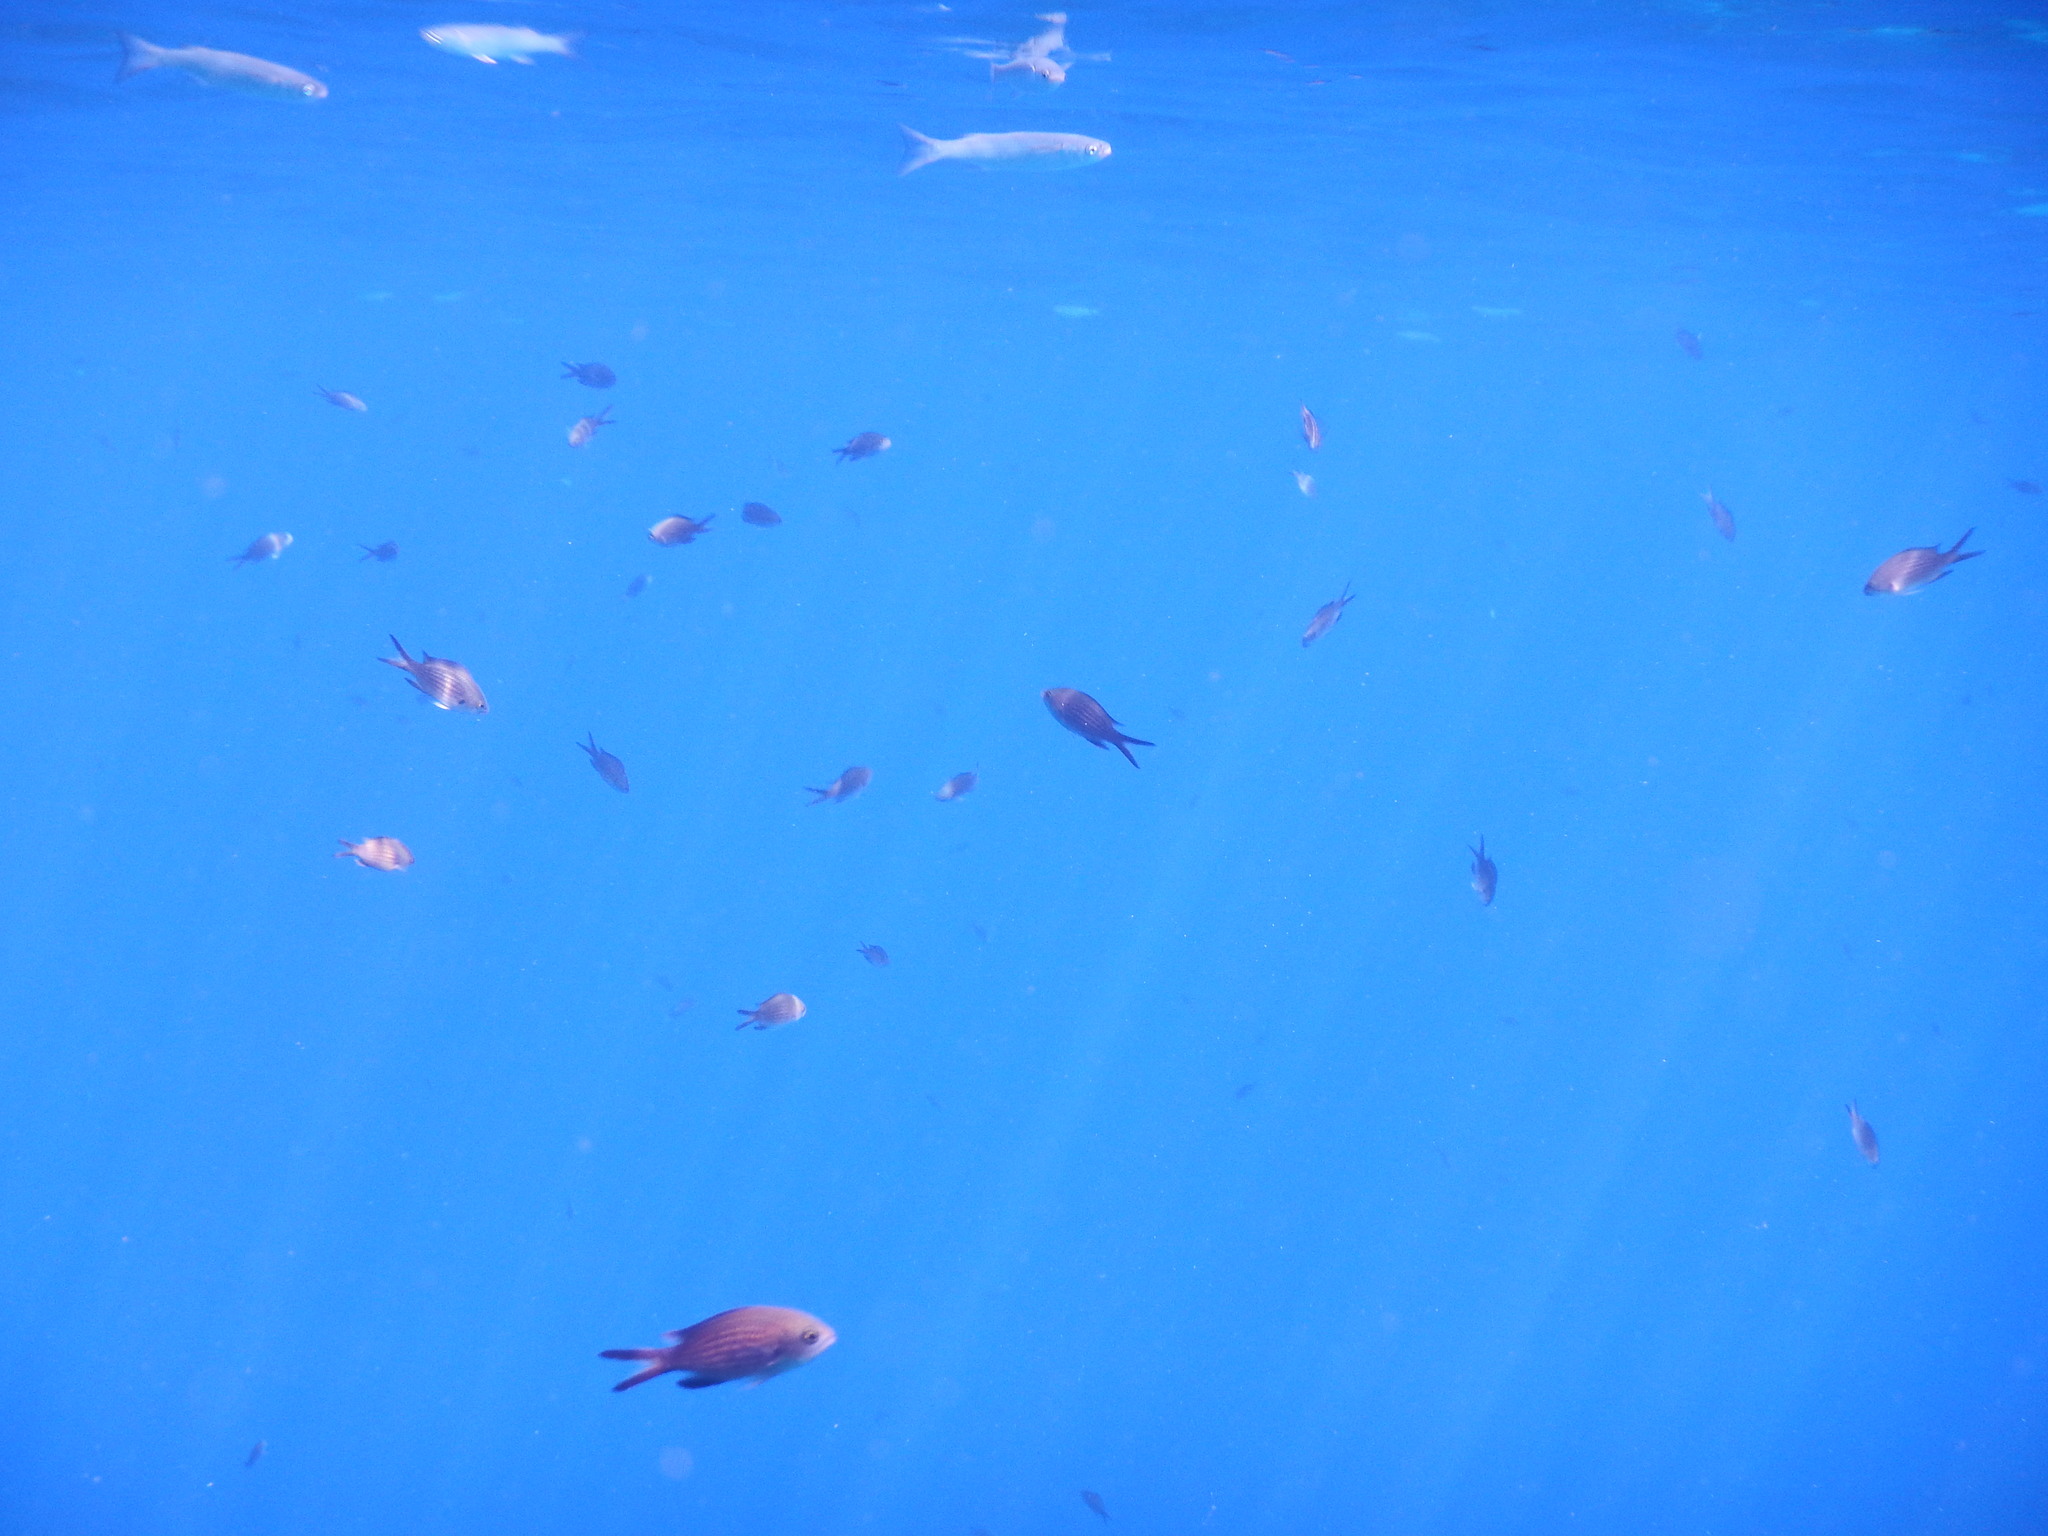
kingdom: Animalia
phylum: Chordata
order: Perciformes
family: Pomacentridae
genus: Chromis
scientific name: Chromis chromis
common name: Damselfish
